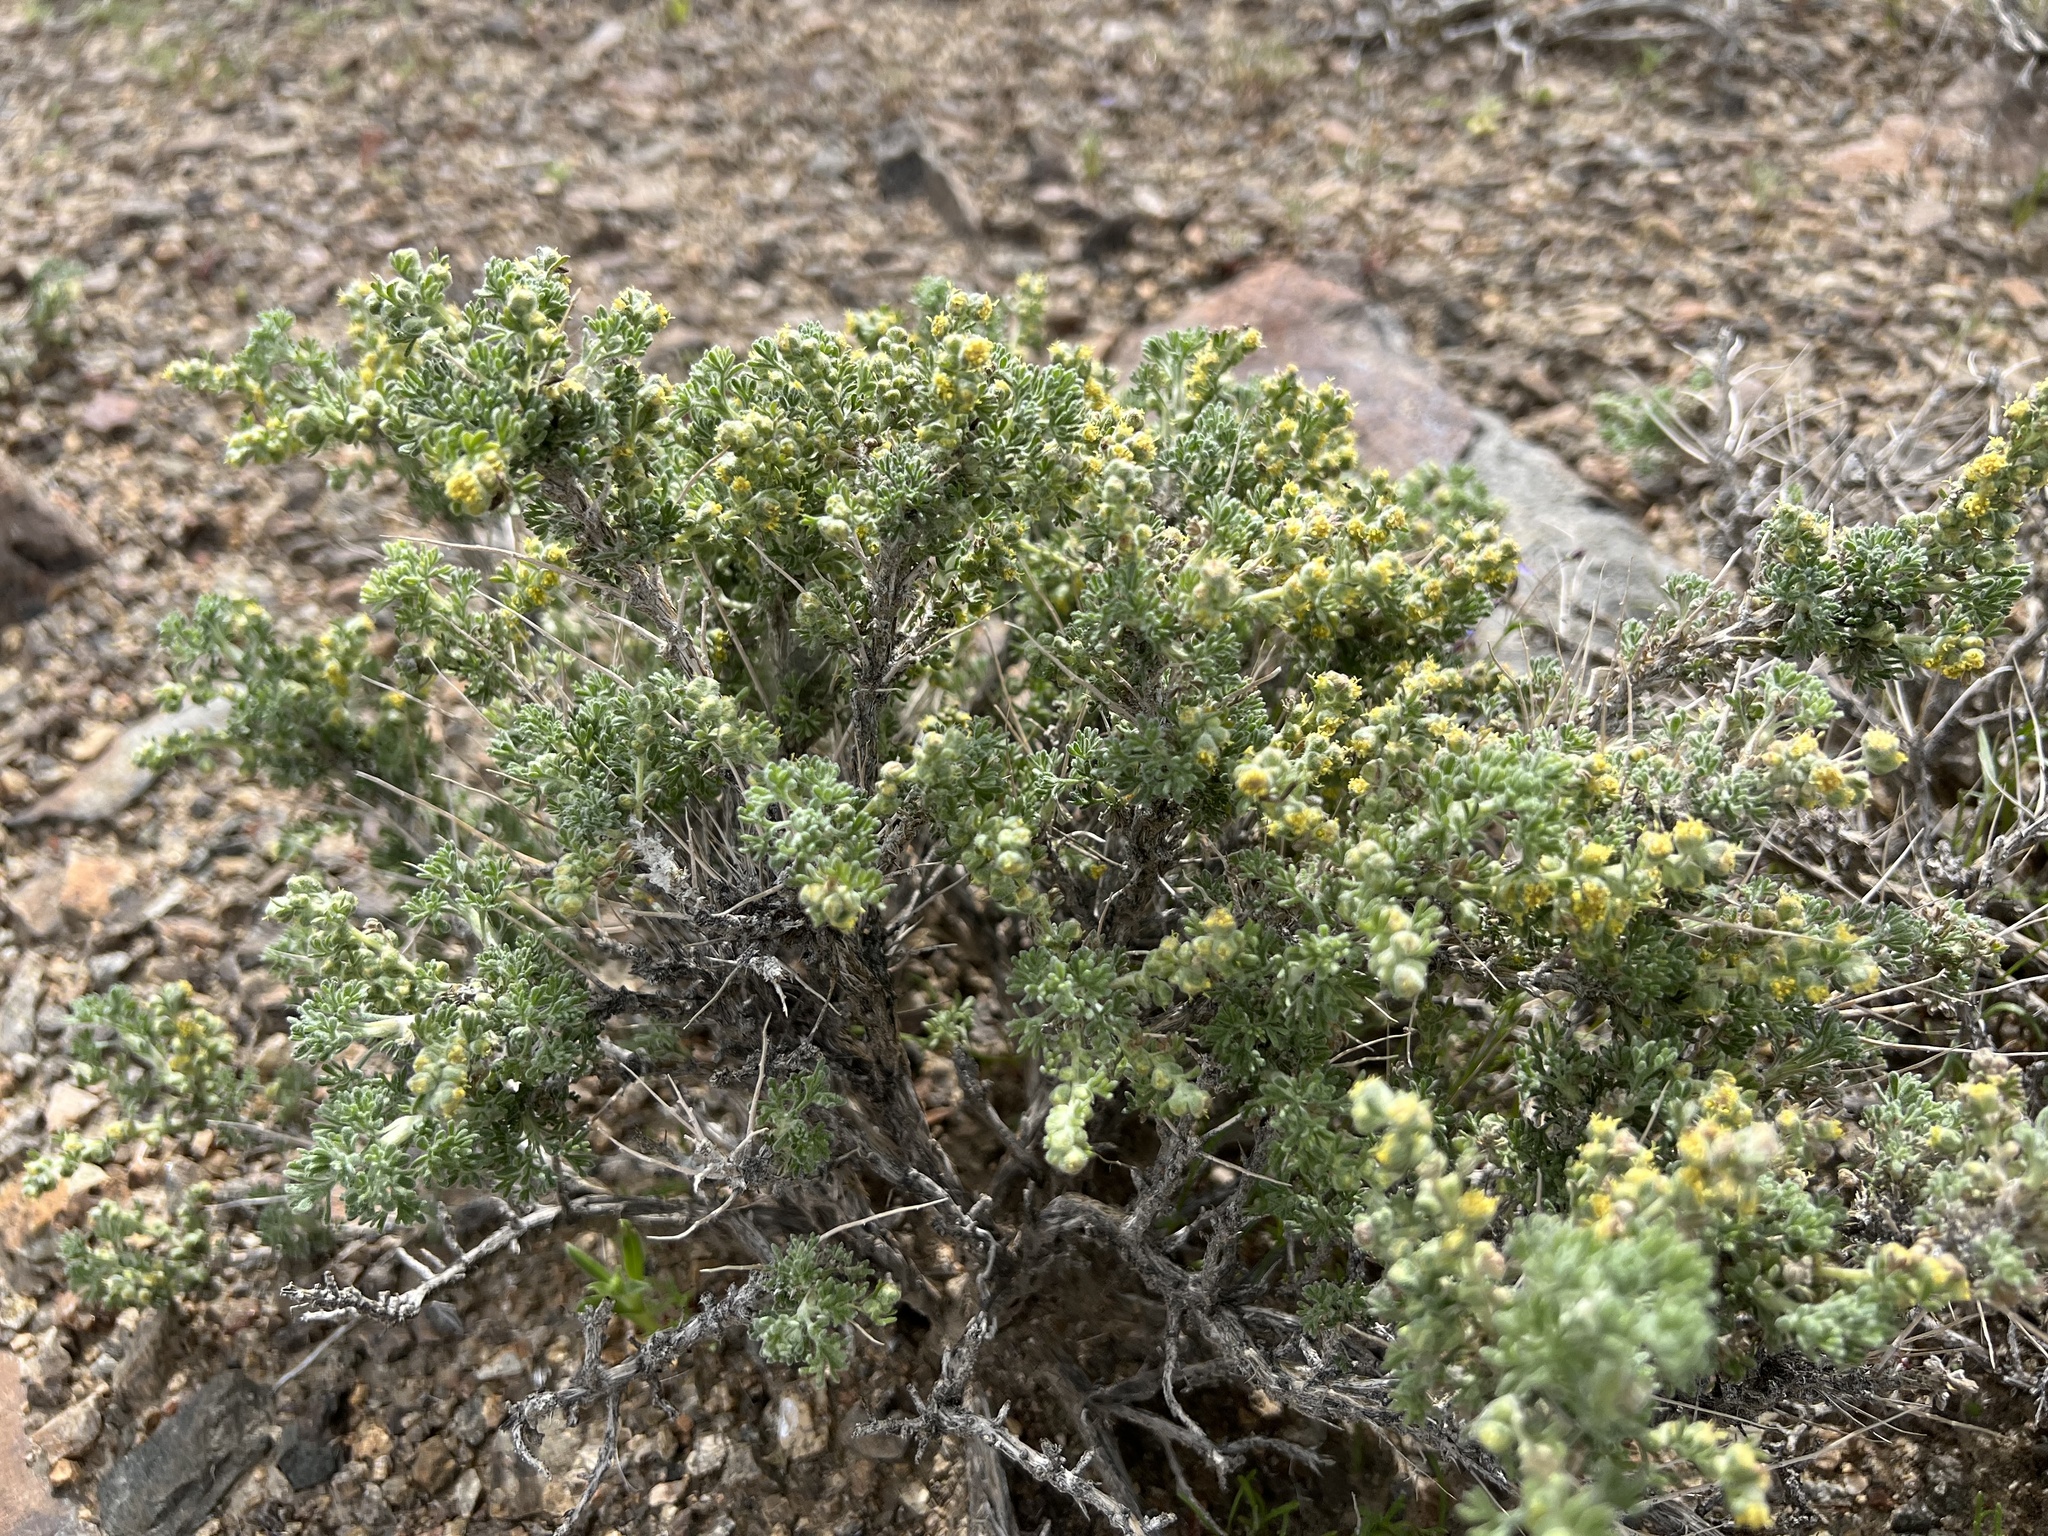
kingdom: Plantae
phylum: Tracheophyta
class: Magnoliopsida
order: Asterales
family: Asteraceae
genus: Artemisia
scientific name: Artemisia spinescens
